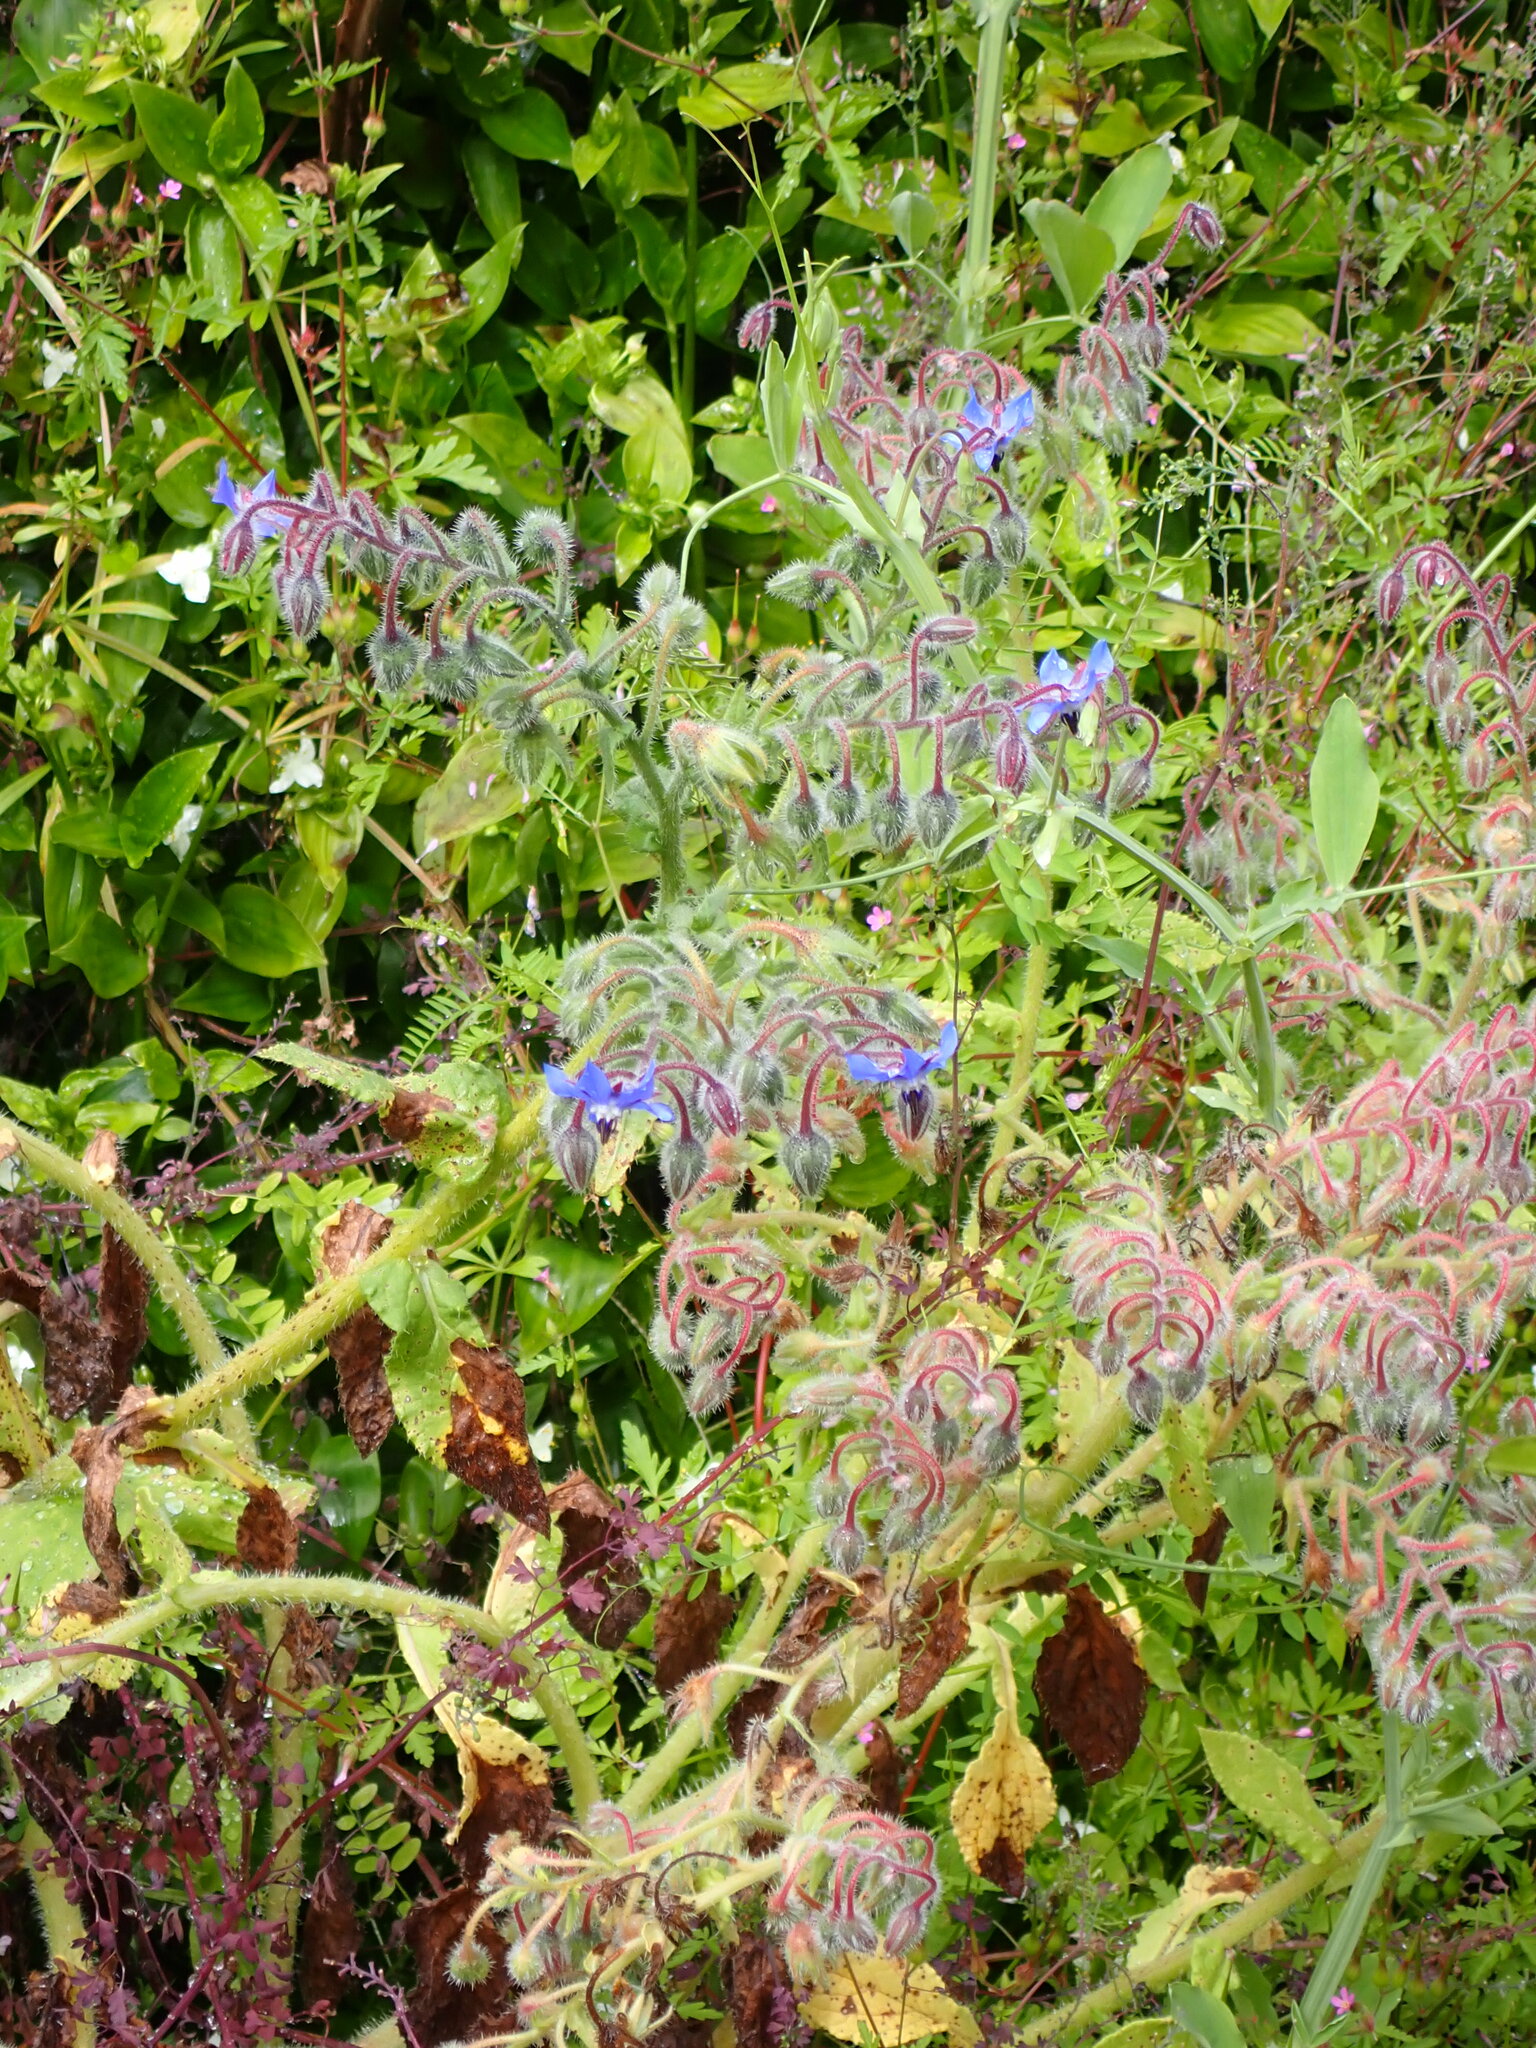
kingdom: Plantae
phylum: Tracheophyta
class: Magnoliopsida
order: Boraginales
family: Boraginaceae
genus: Borago
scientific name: Borago officinalis
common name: Borage
